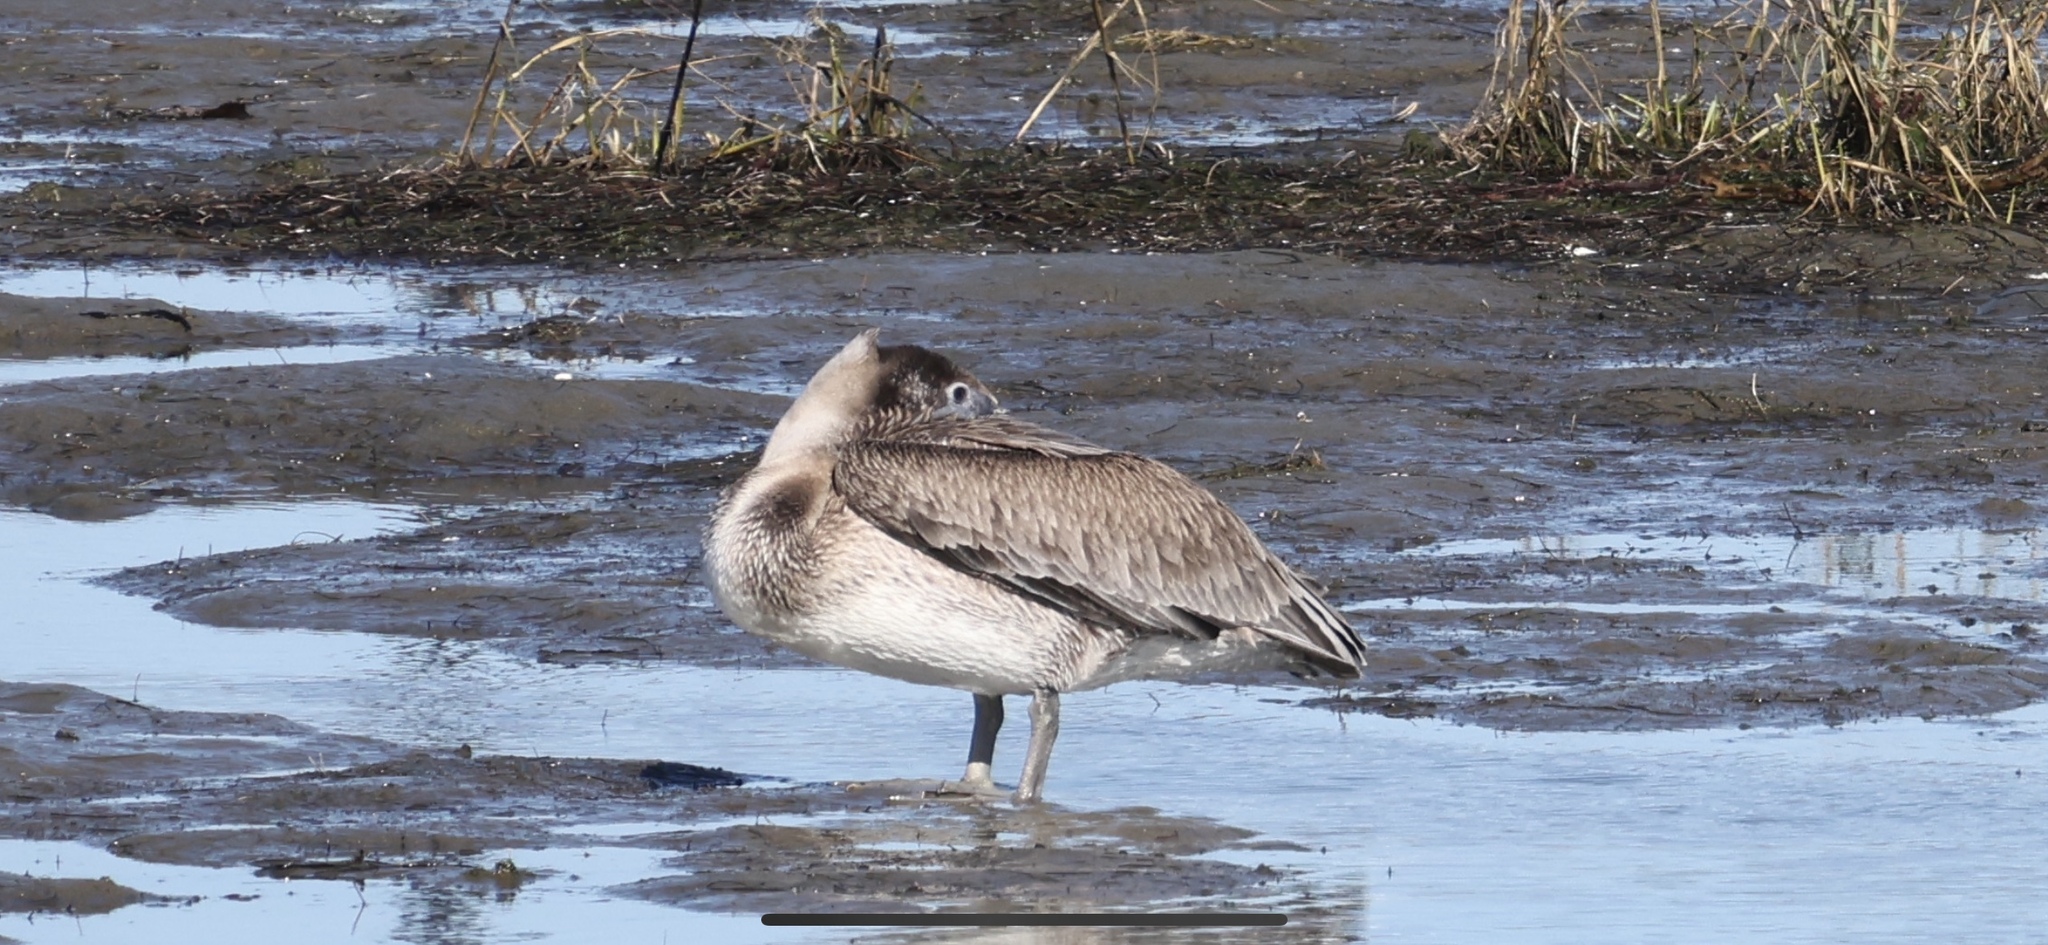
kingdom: Animalia
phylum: Chordata
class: Aves
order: Pelecaniformes
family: Pelecanidae
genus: Pelecanus
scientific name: Pelecanus occidentalis
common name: Brown pelican
